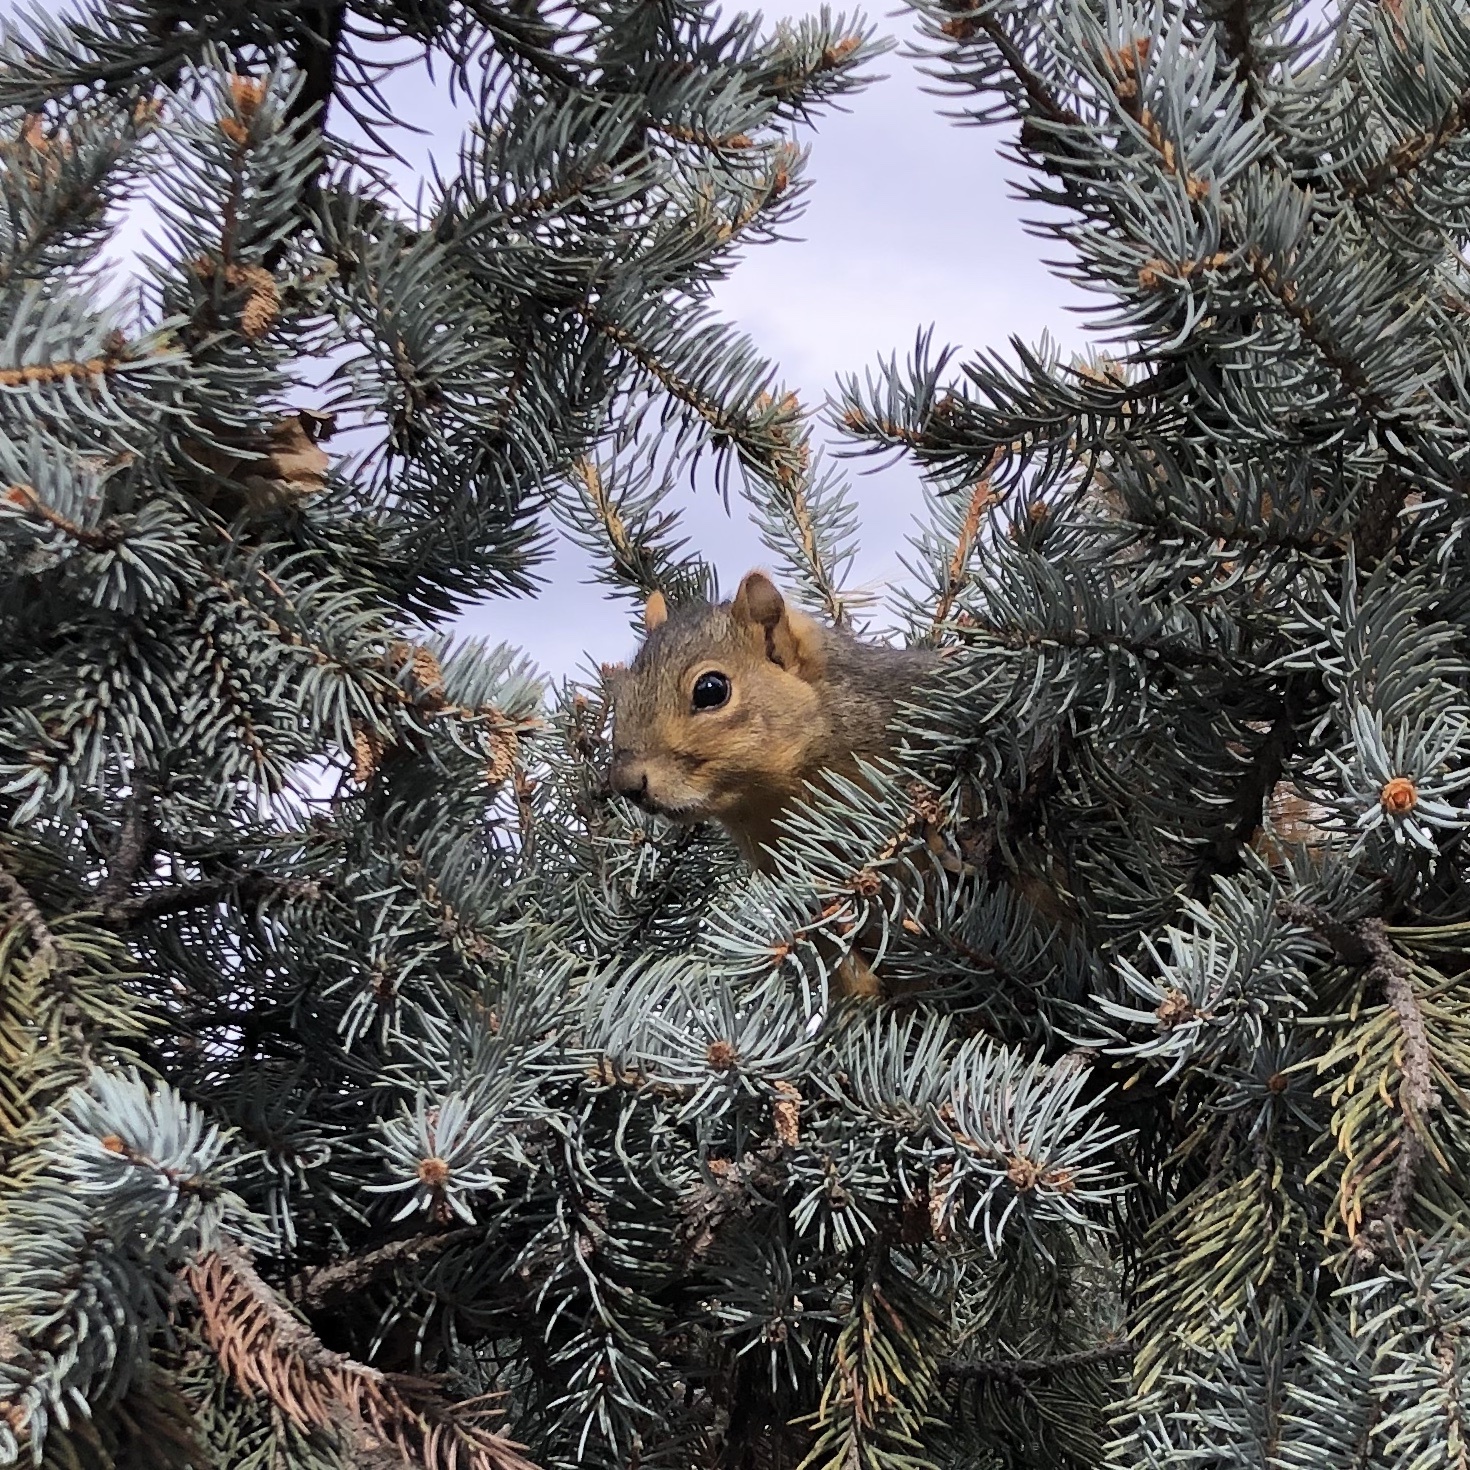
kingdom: Animalia
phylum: Chordata
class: Mammalia
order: Rodentia
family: Sciuridae
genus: Sciurus
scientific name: Sciurus niger
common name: Fox squirrel
